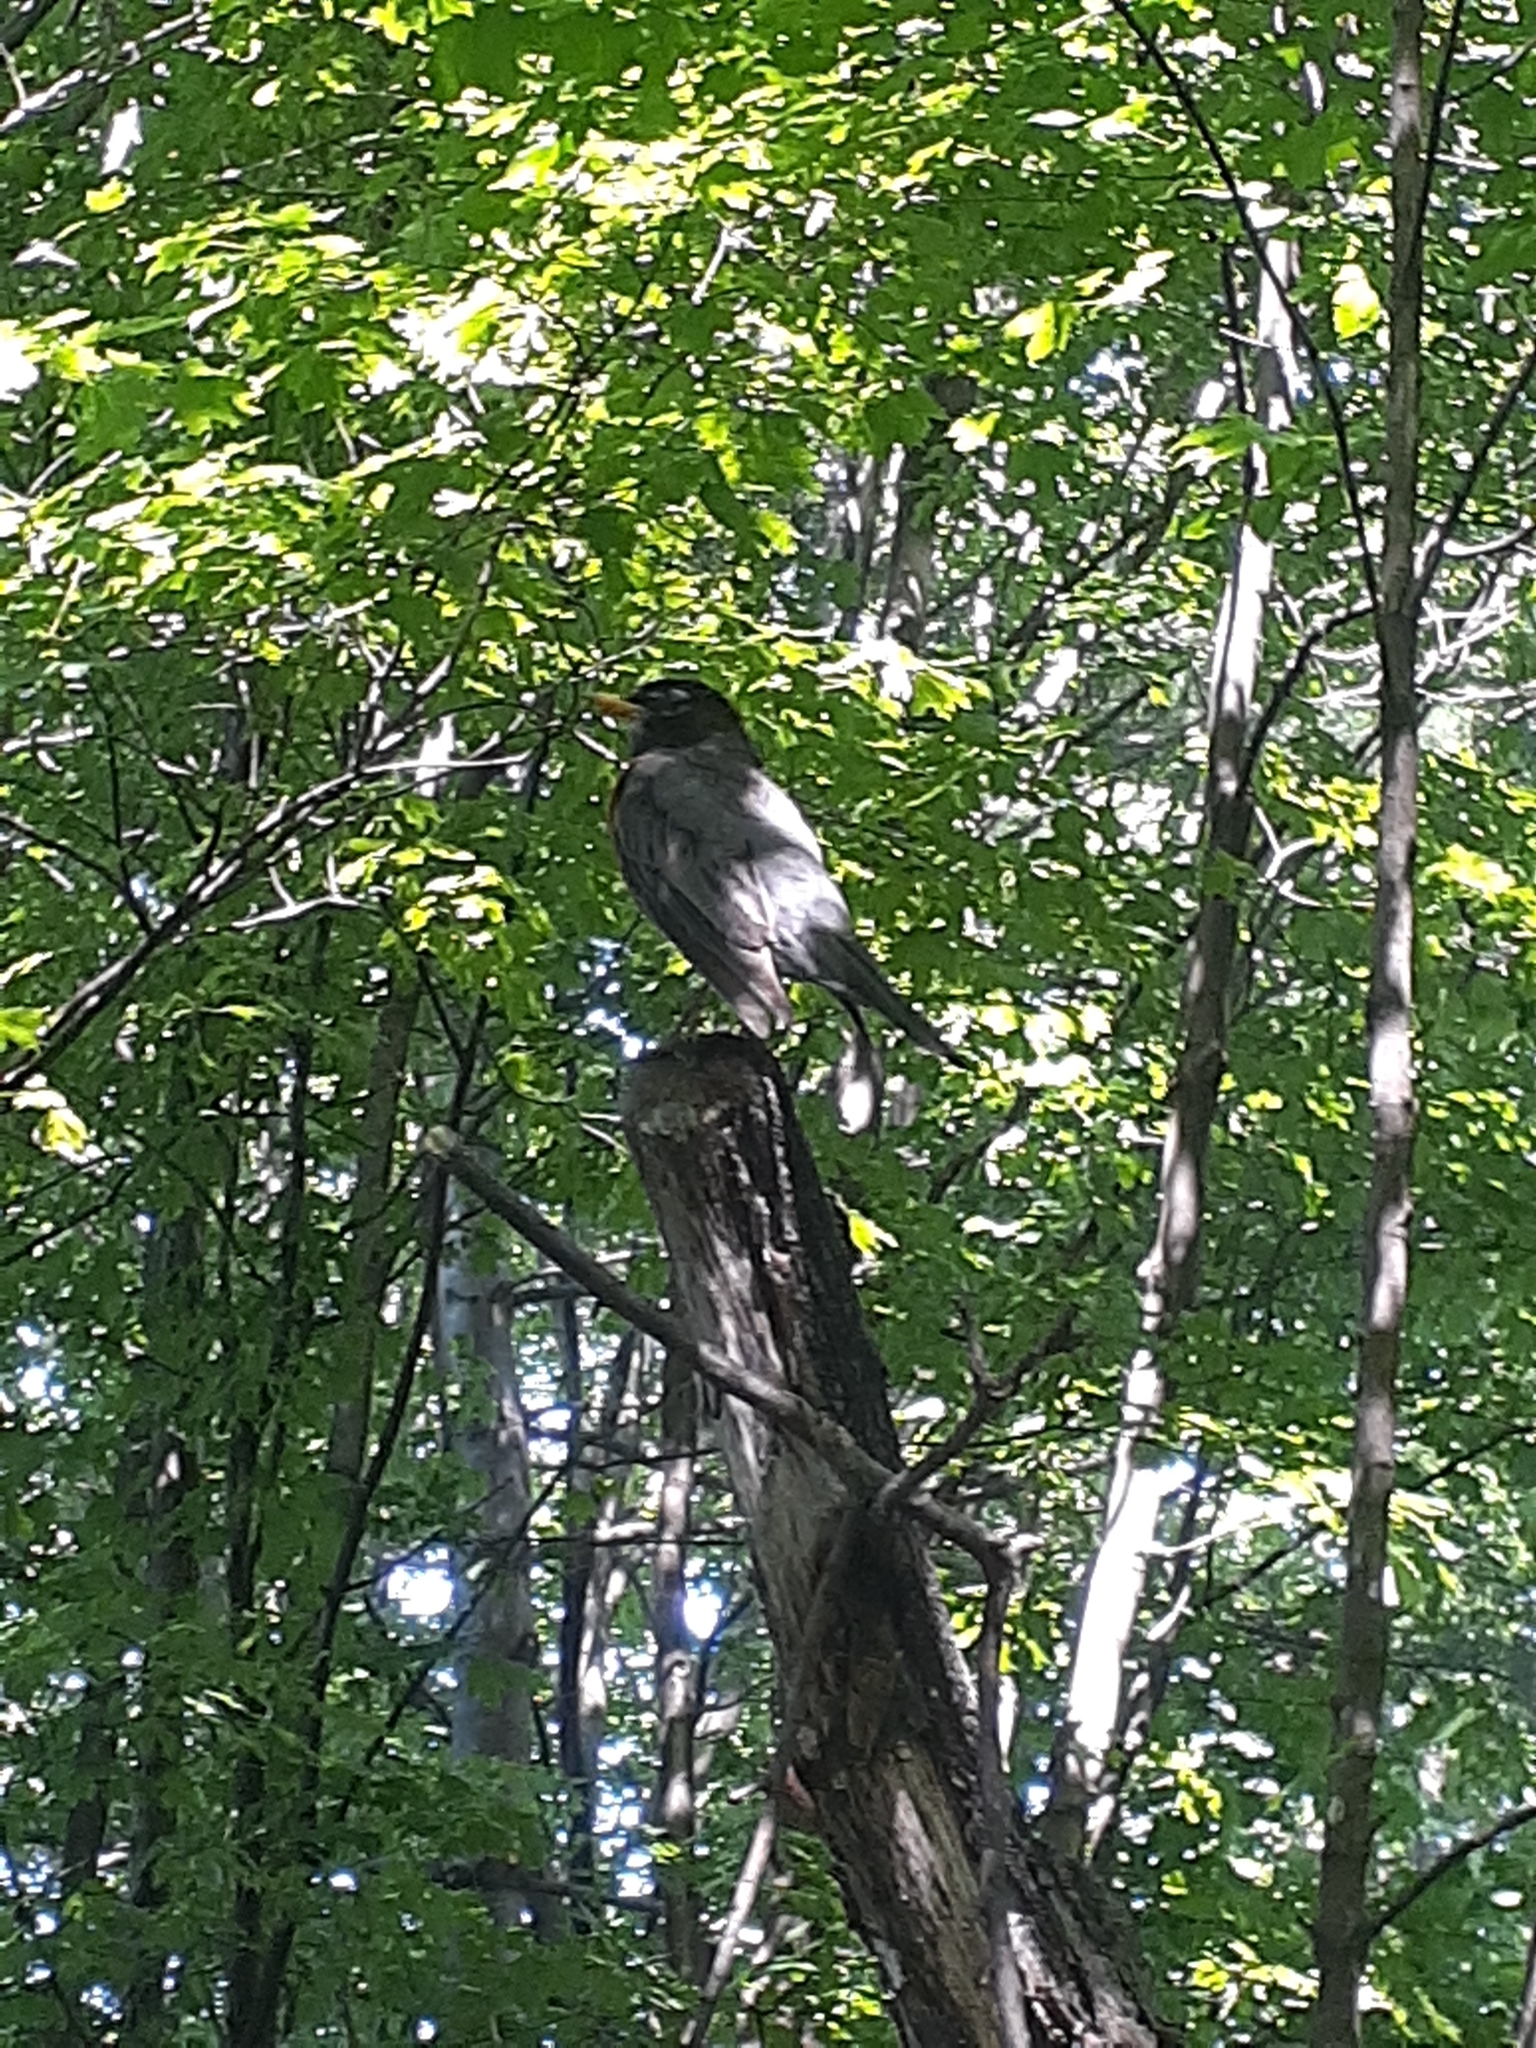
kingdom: Animalia
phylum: Chordata
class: Aves
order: Passeriformes
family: Turdidae
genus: Turdus
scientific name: Turdus migratorius
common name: American robin
